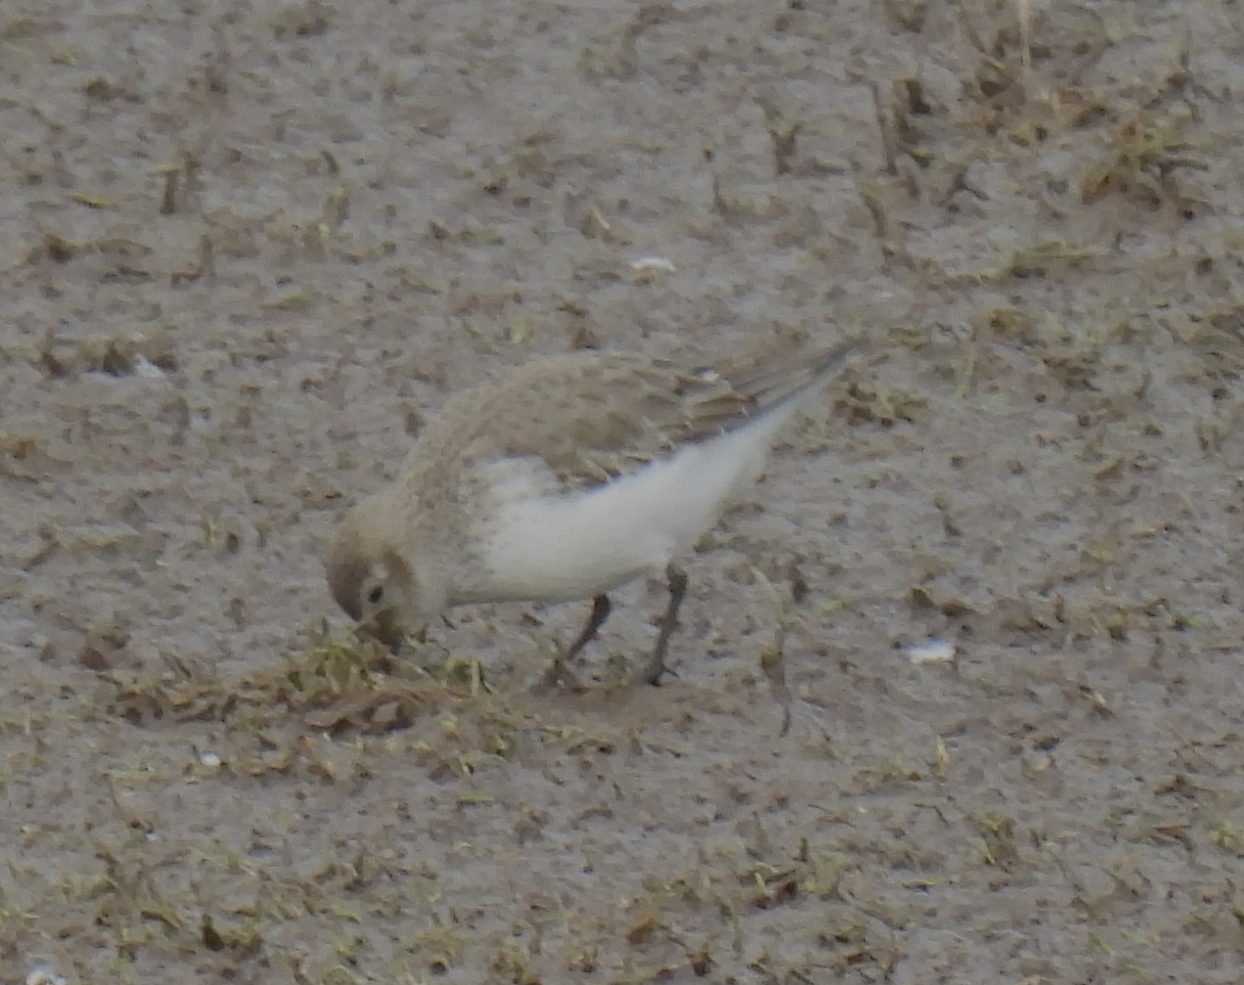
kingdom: Animalia
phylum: Chordata
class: Aves
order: Charadriiformes
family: Scolopacidae
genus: Calidris
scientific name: Calidris alpina
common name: Dunlin
